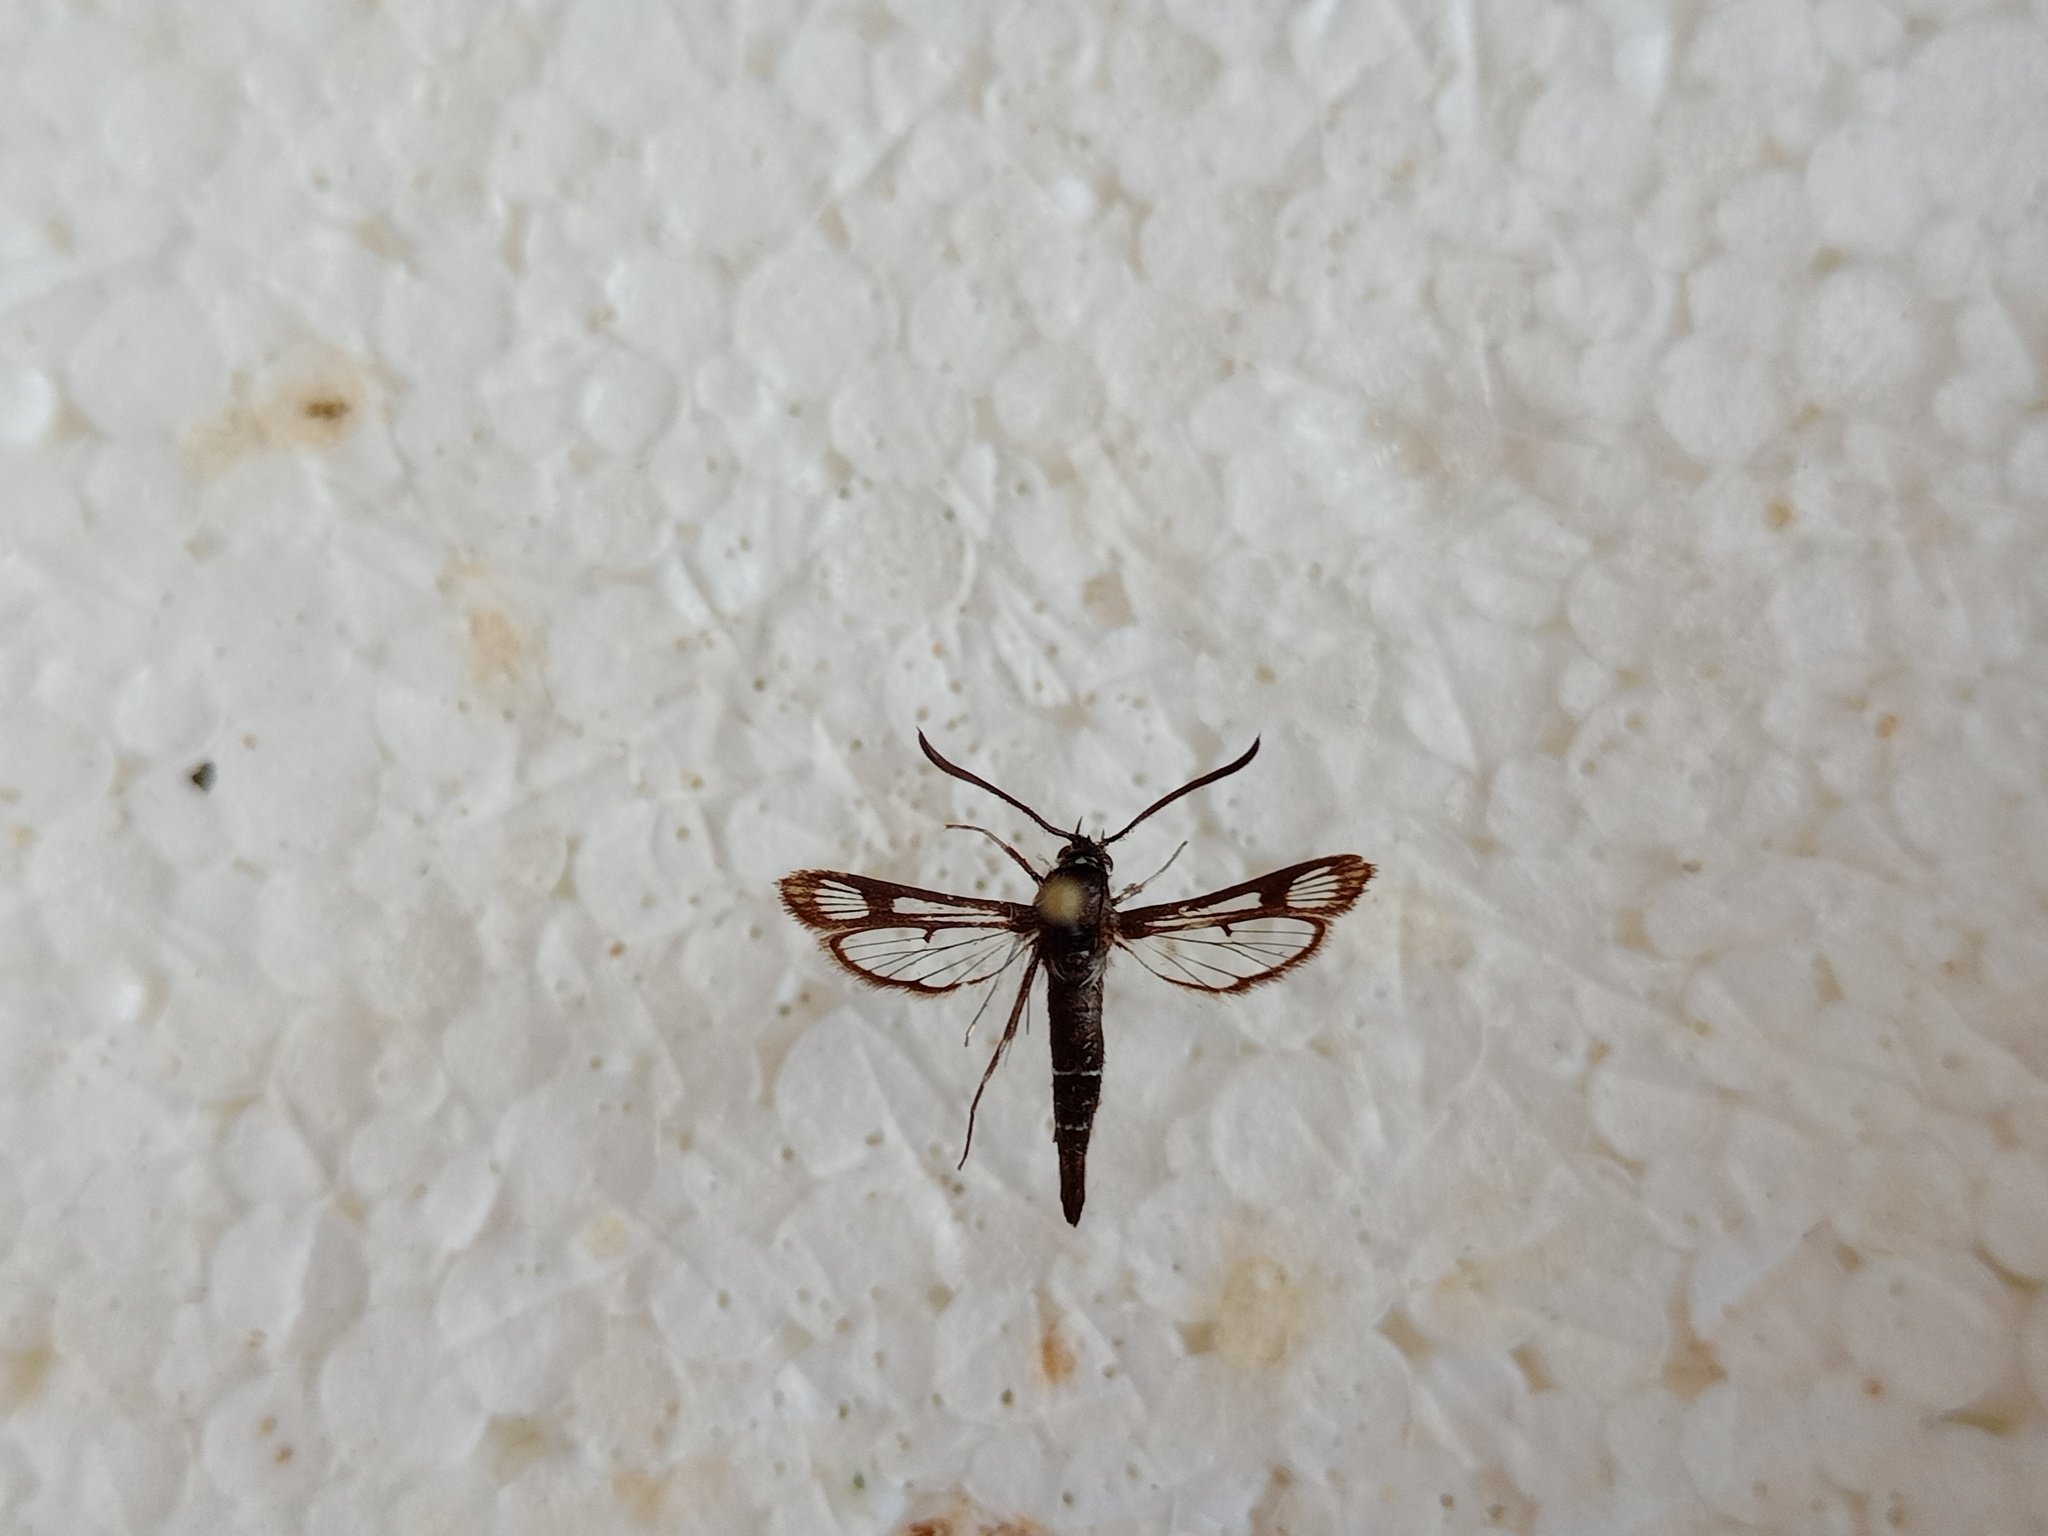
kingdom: Animalia
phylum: Arthropoda
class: Insecta
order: Lepidoptera
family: Sesiidae
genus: Pyropteron
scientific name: Pyropteron leucomelaena
